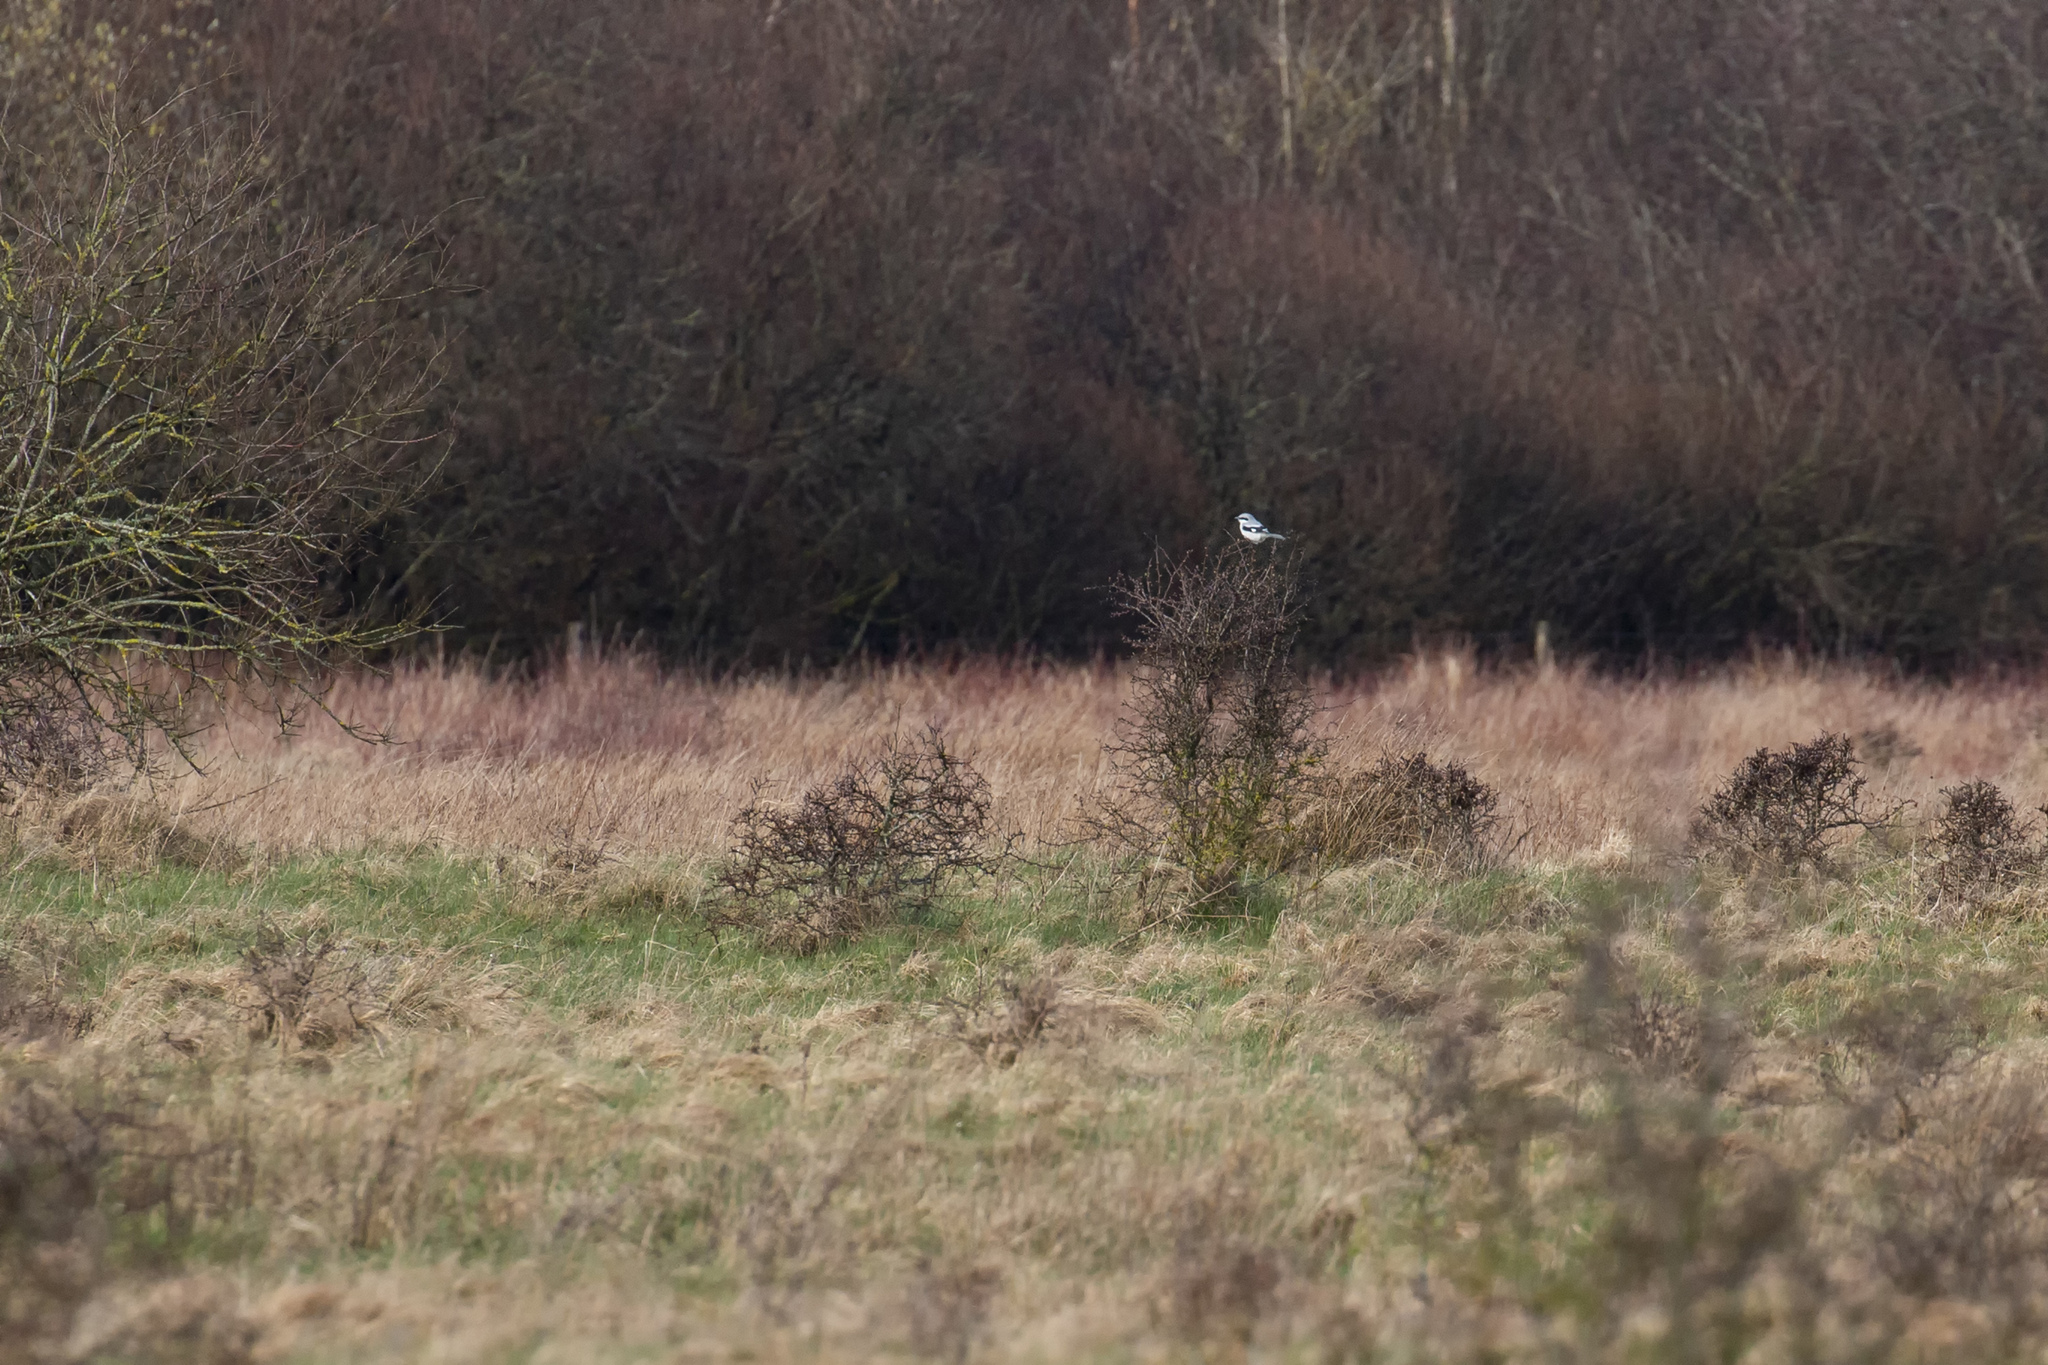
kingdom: Animalia
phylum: Chordata
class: Aves
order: Passeriformes
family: Laniidae
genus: Lanius
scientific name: Lanius excubitor
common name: Great grey shrike
